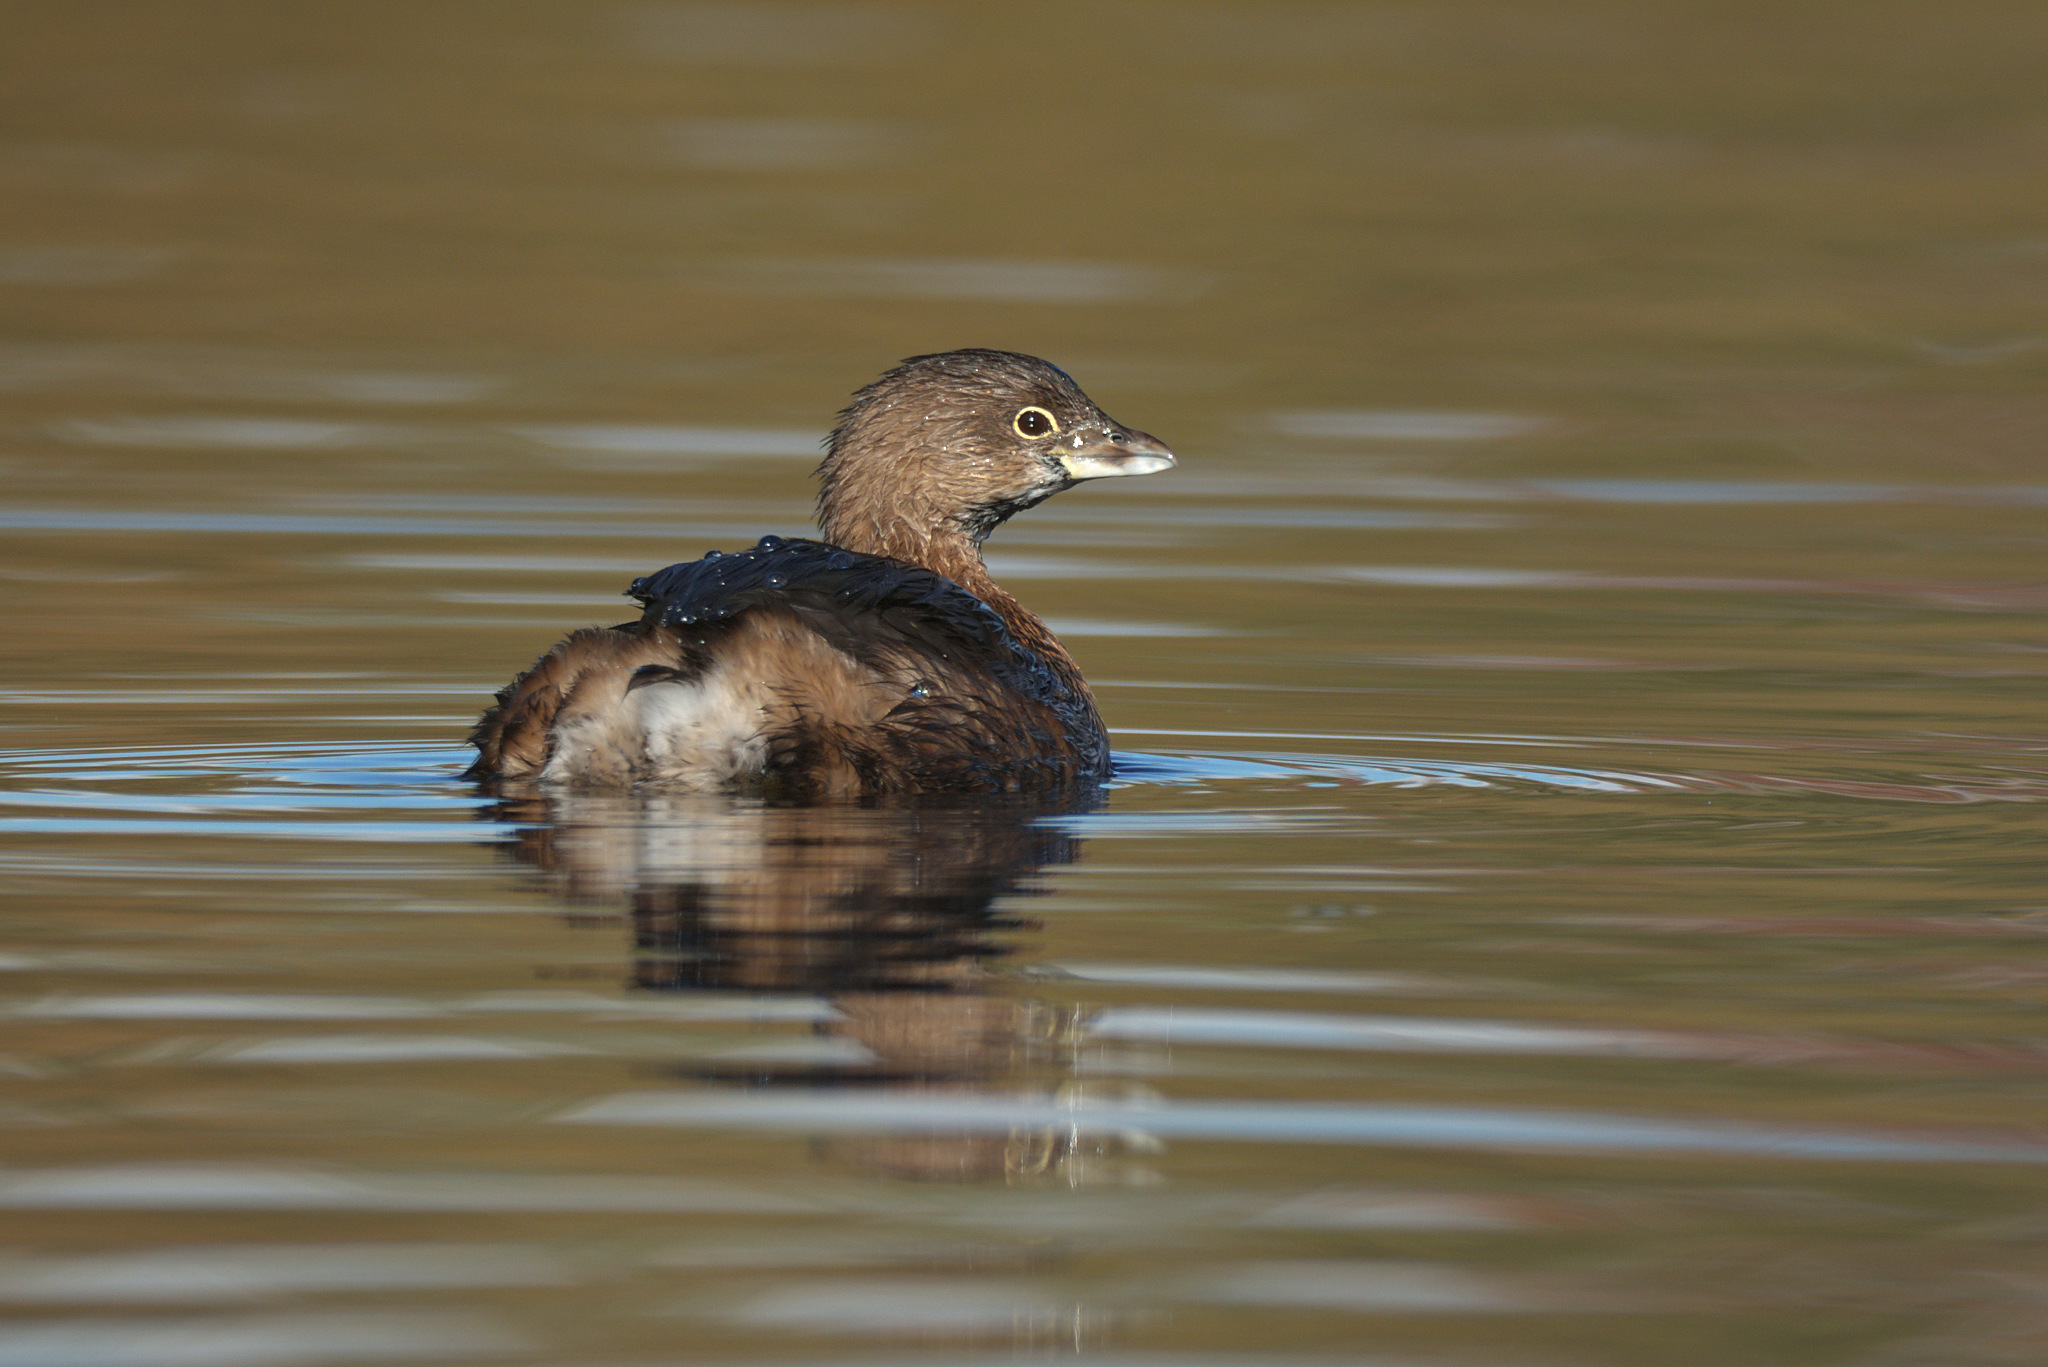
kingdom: Animalia
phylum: Chordata
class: Aves
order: Podicipediformes
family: Podicipedidae
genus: Podilymbus
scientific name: Podilymbus podiceps
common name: Pied-billed grebe
